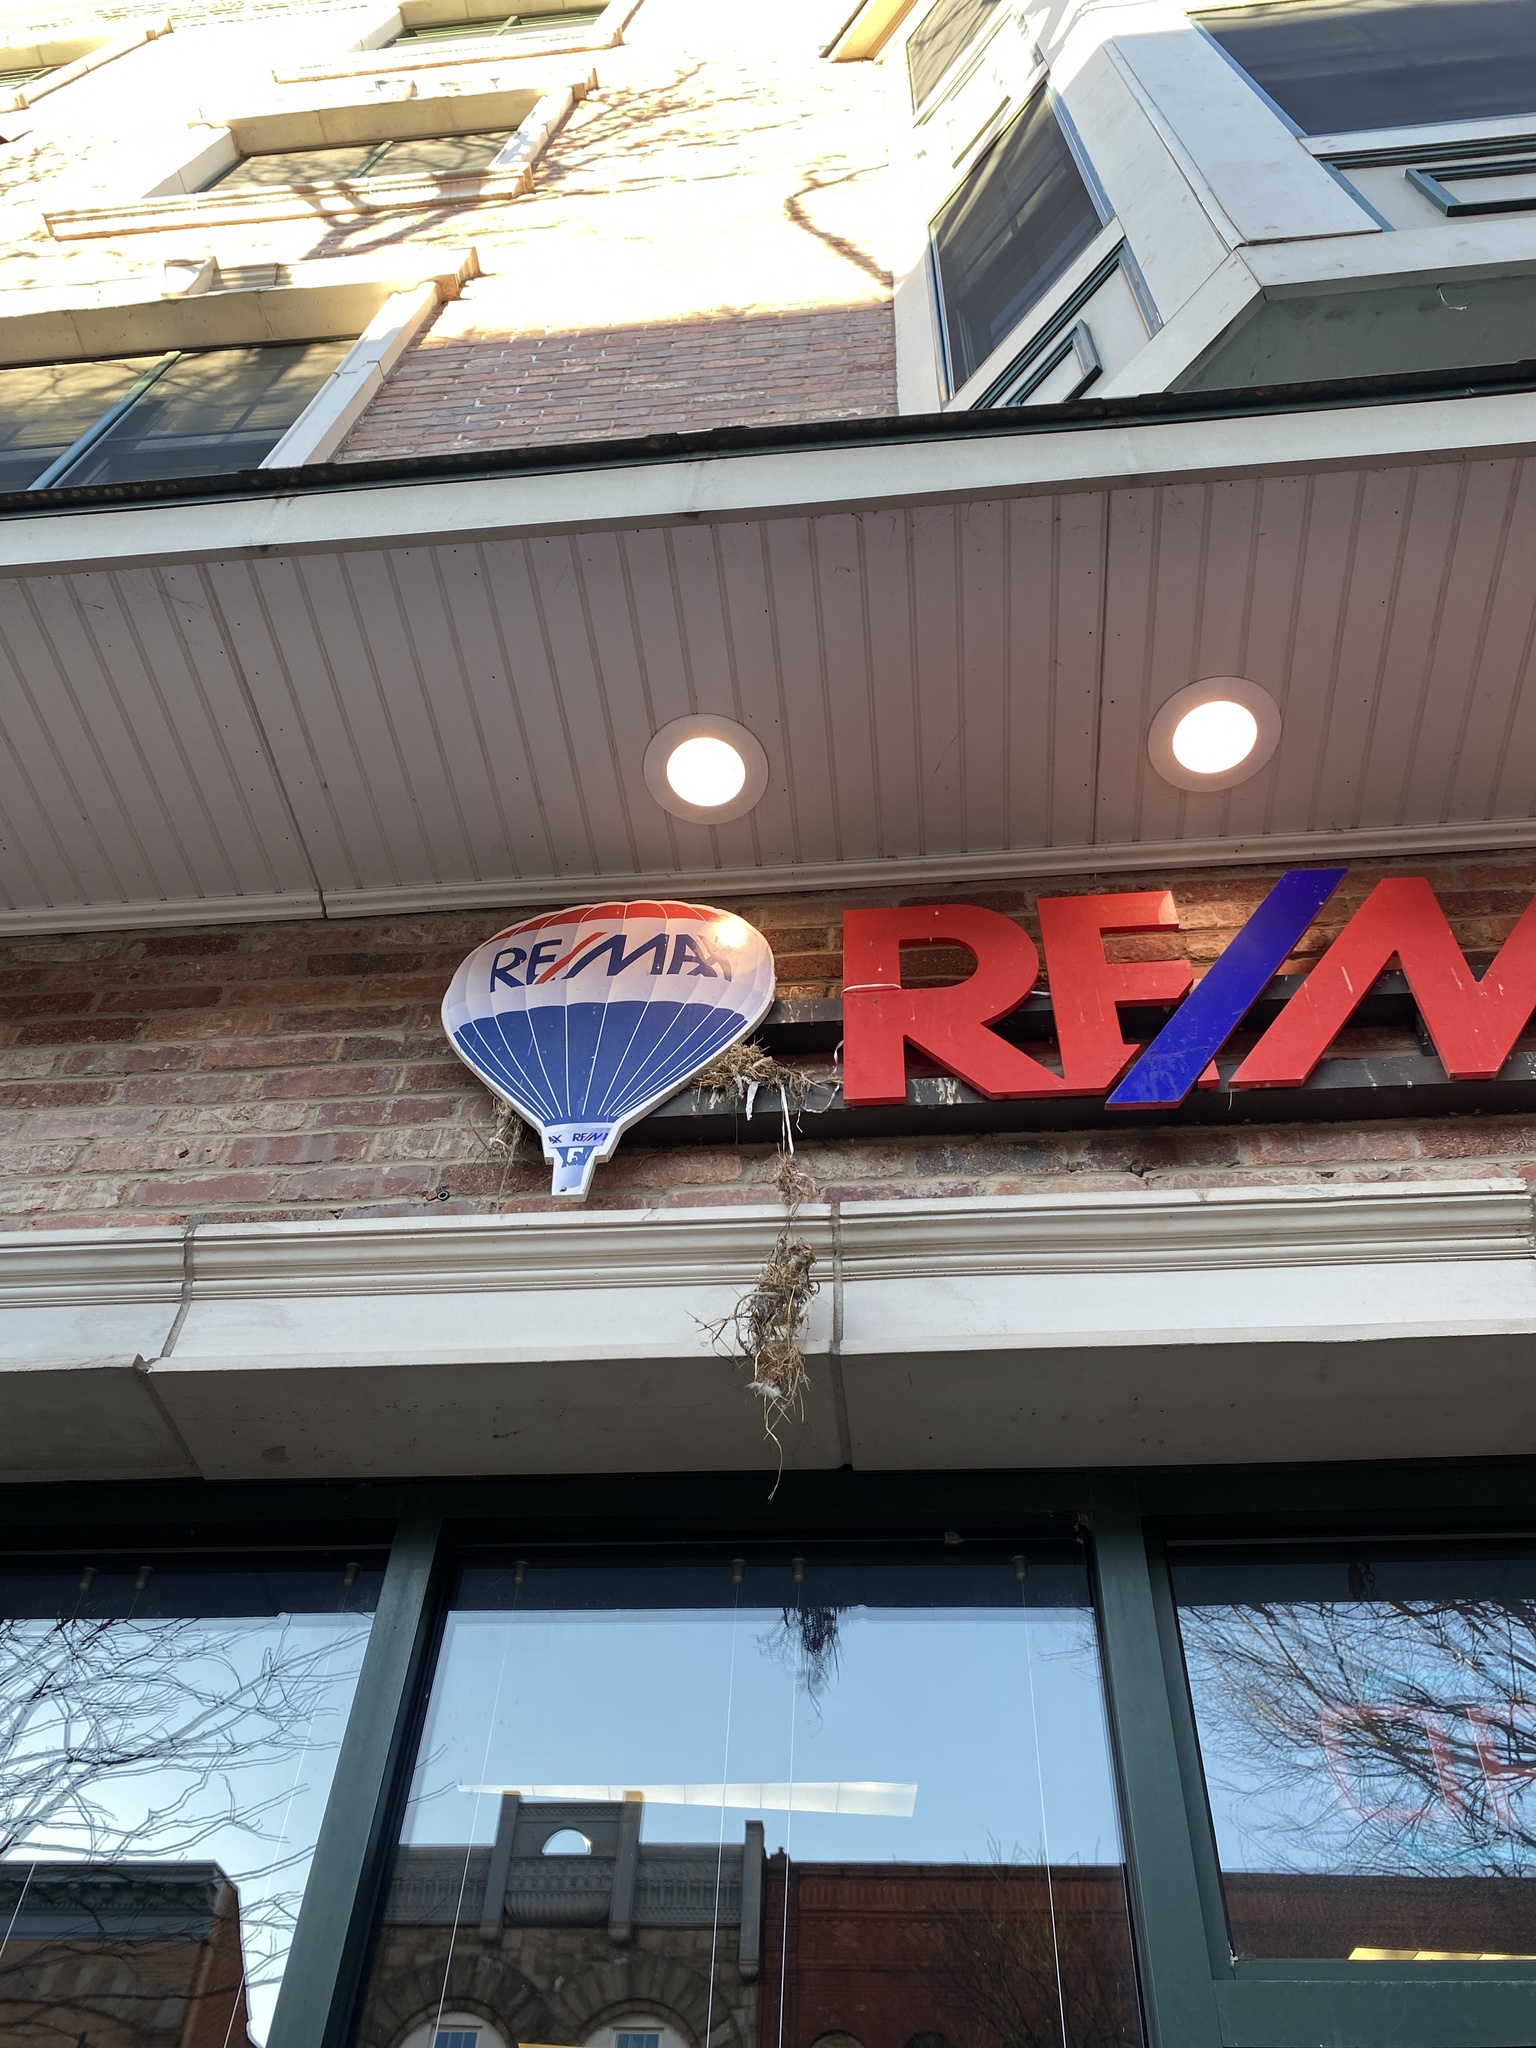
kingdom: Animalia
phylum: Chordata
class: Aves
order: Passeriformes
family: Passeridae
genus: Passer
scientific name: Passer domesticus
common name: House sparrow
